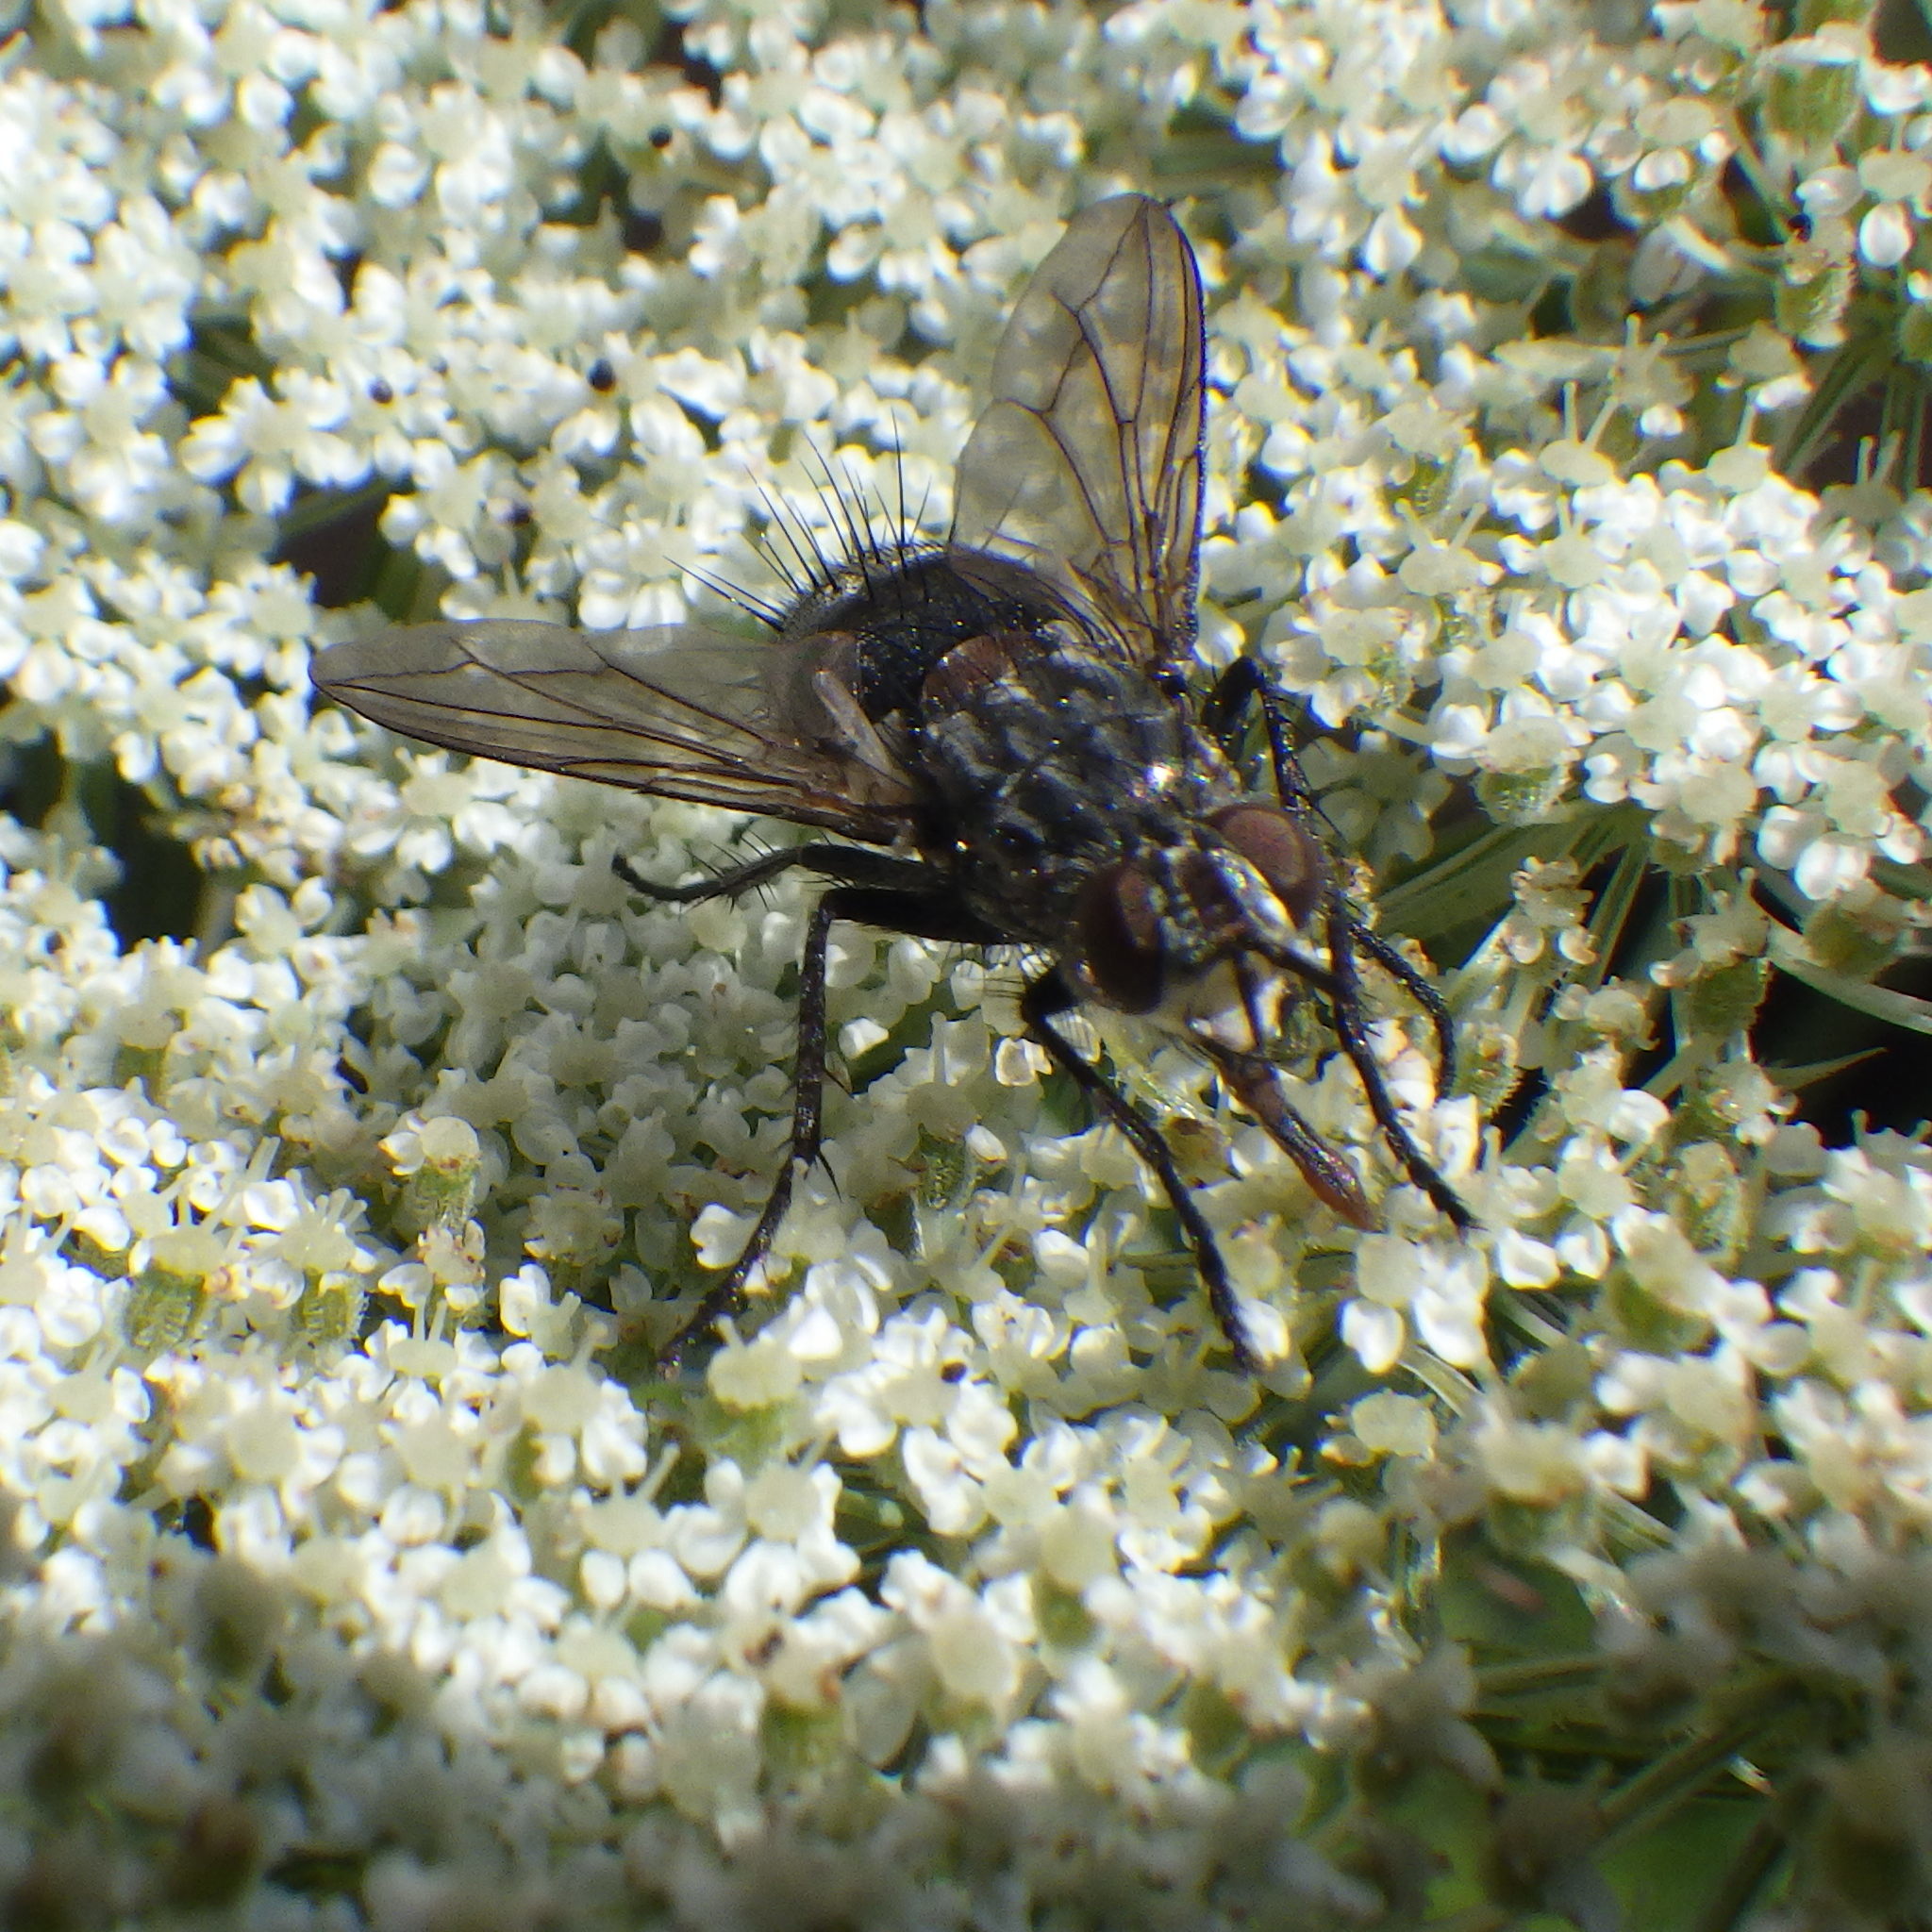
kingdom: Animalia
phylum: Arthropoda
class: Insecta
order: Diptera
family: Tachinidae
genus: Linnaemya
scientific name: Linnaemya tessellata
